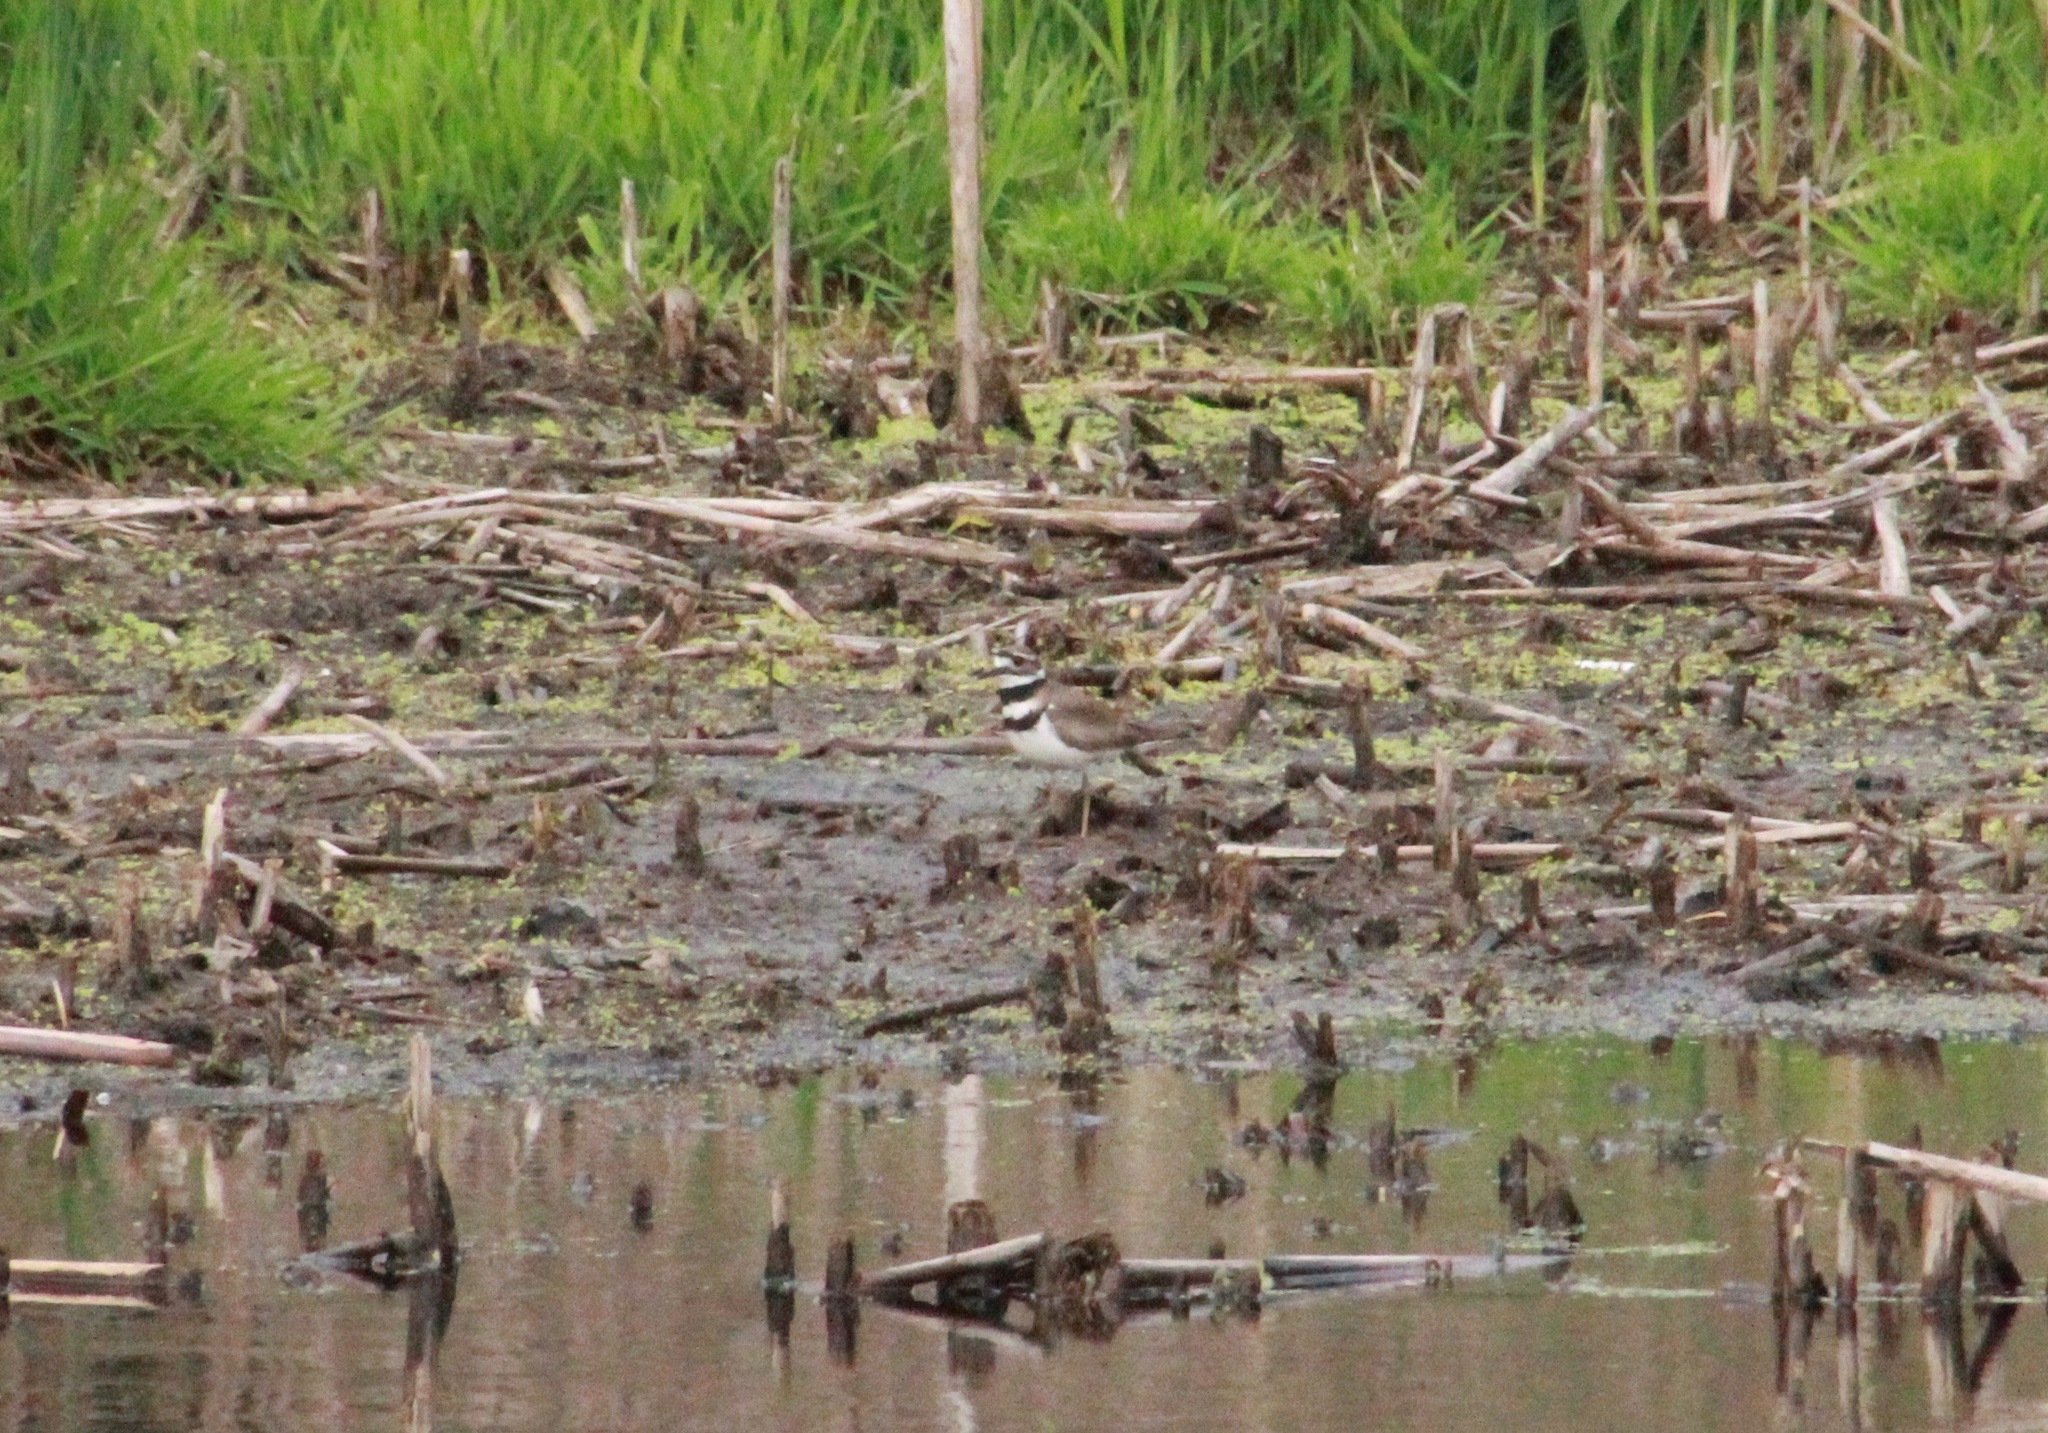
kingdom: Animalia
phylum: Chordata
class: Aves
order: Charadriiformes
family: Charadriidae
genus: Charadrius
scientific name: Charadrius vociferus
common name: Killdeer
